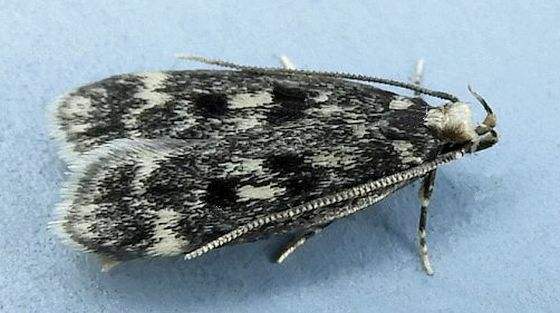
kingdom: Animalia
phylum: Arthropoda
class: Insecta
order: Lepidoptera
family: Lecithoceridae
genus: Martyringa
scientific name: Martyringa latipennis
